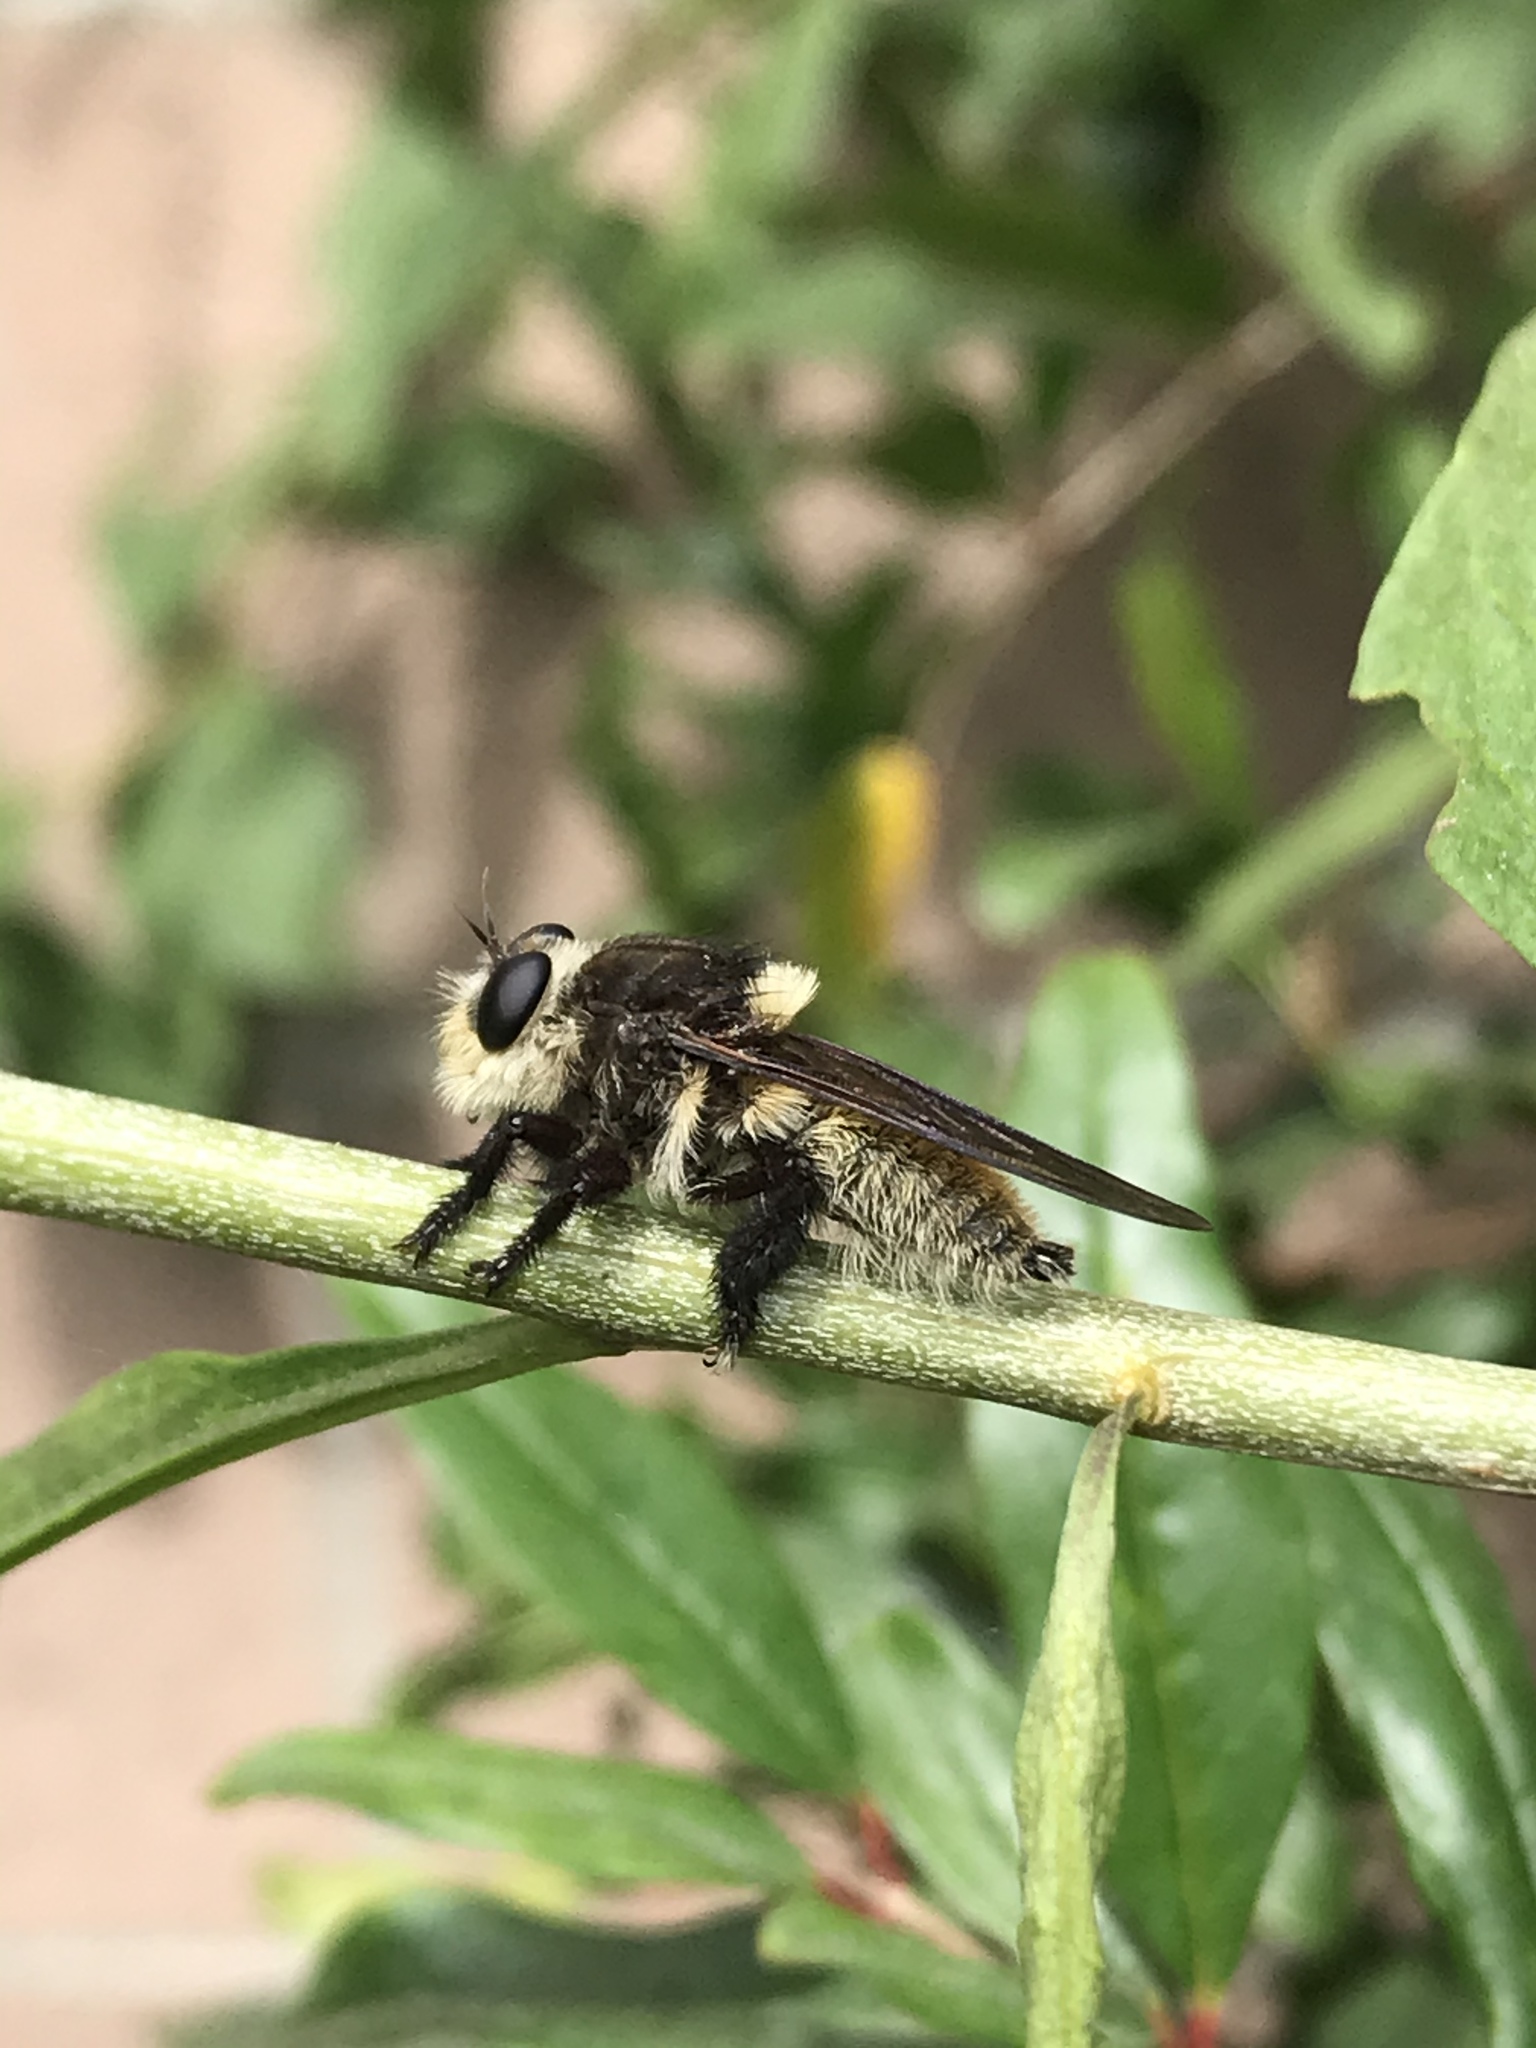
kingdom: Animalia
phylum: Arthropoda
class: Insecta
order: Diptera
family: Asilidae
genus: Mallophora
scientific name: Mallophora fautrix
